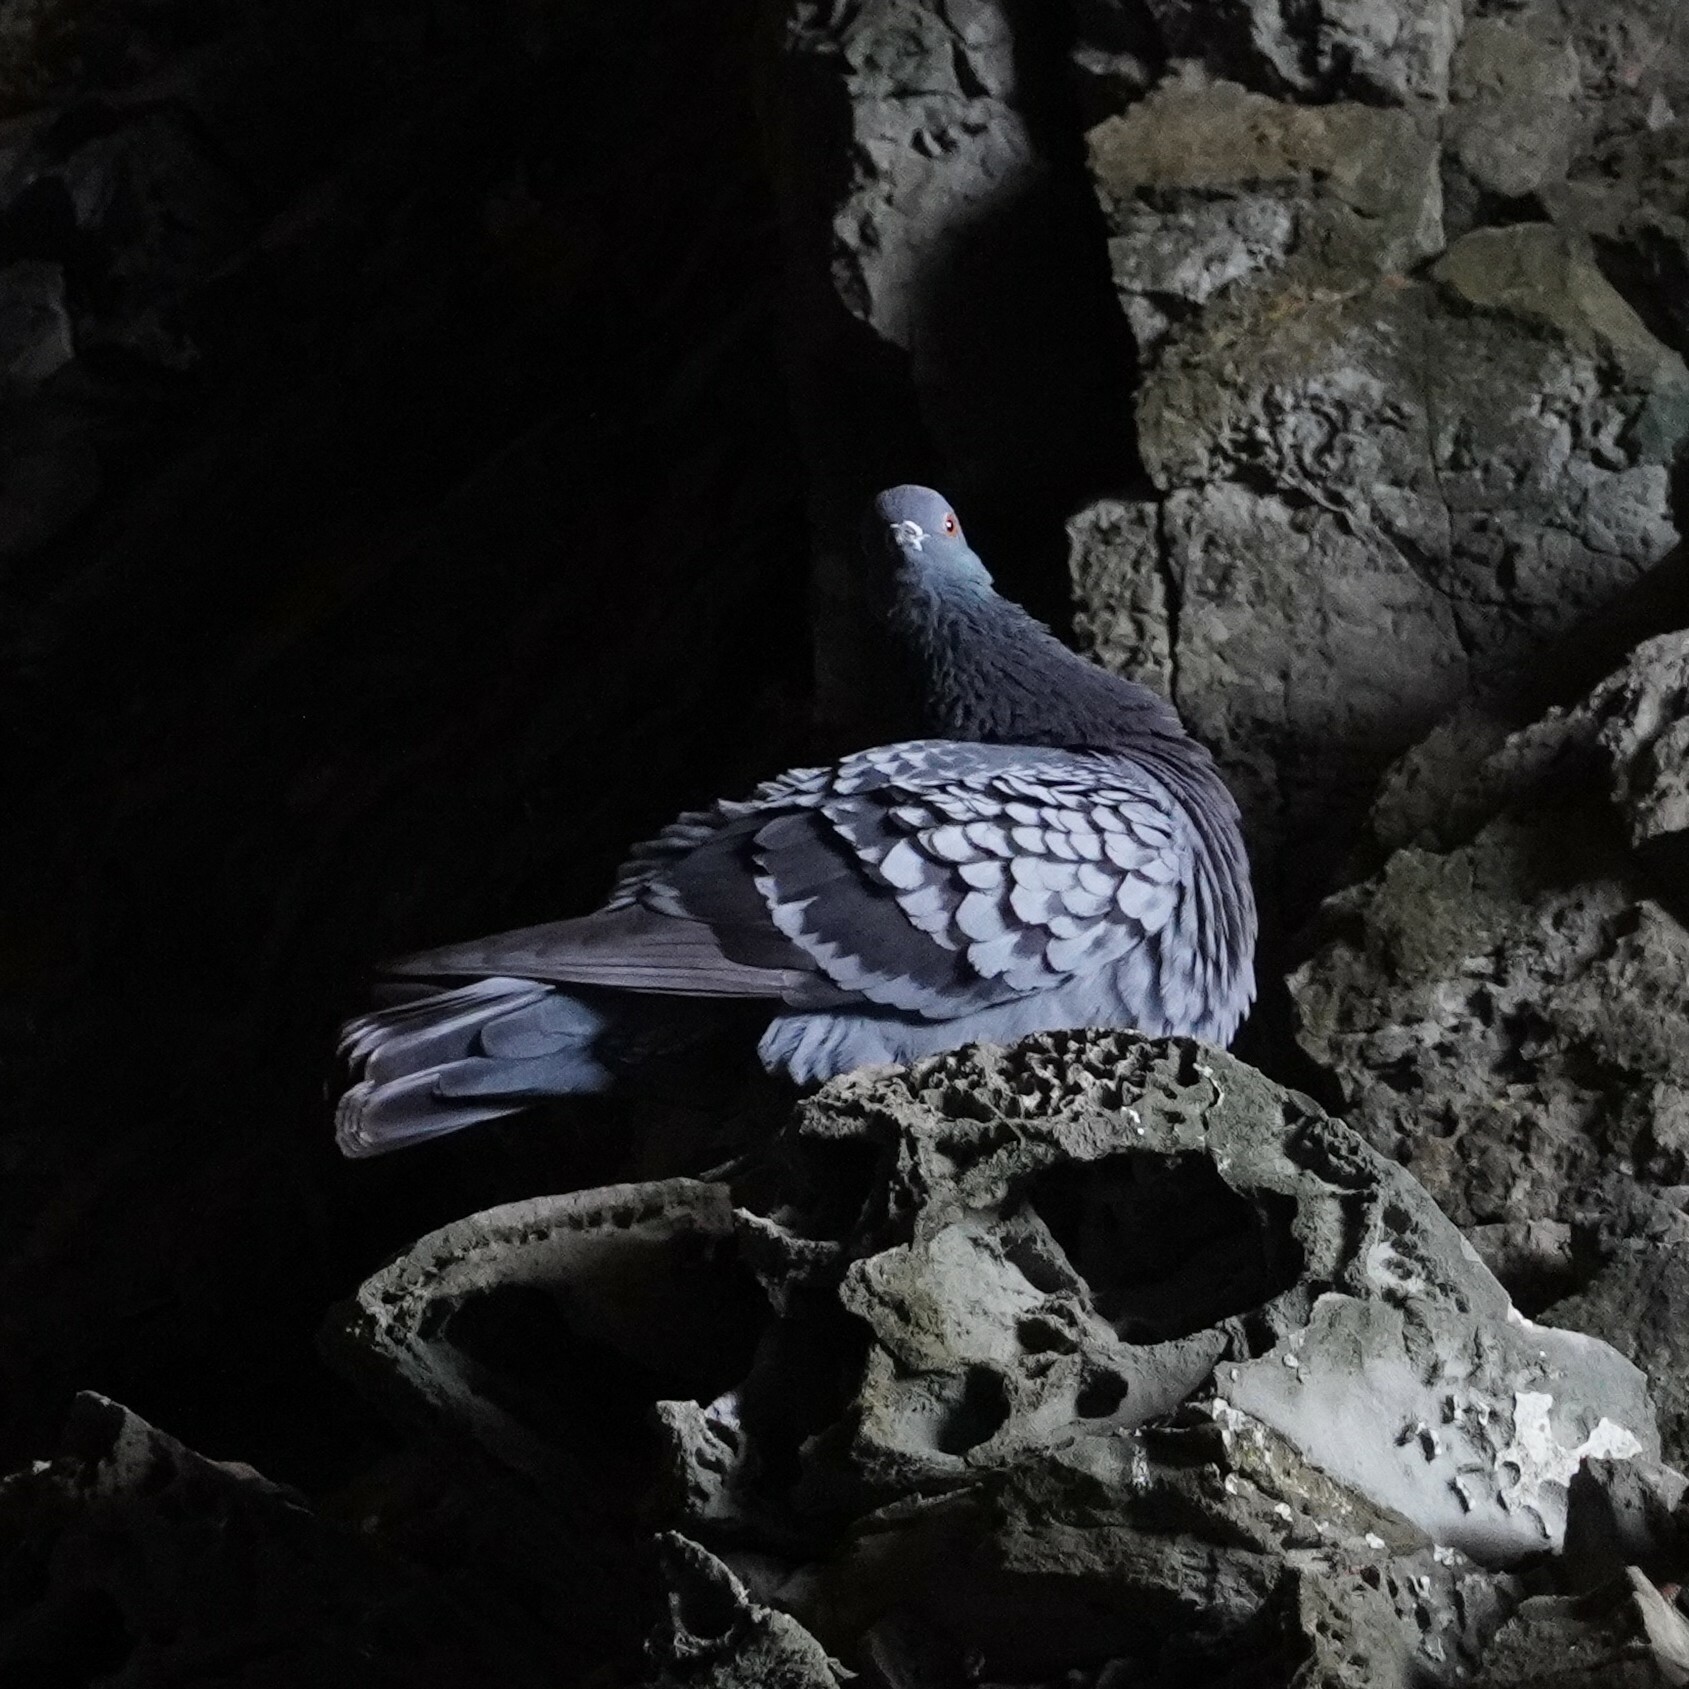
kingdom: Animalia
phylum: Chordata
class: Aves
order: Columbiformes
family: Columbidae
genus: Columba
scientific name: Columba livia
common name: Rock pigeon
